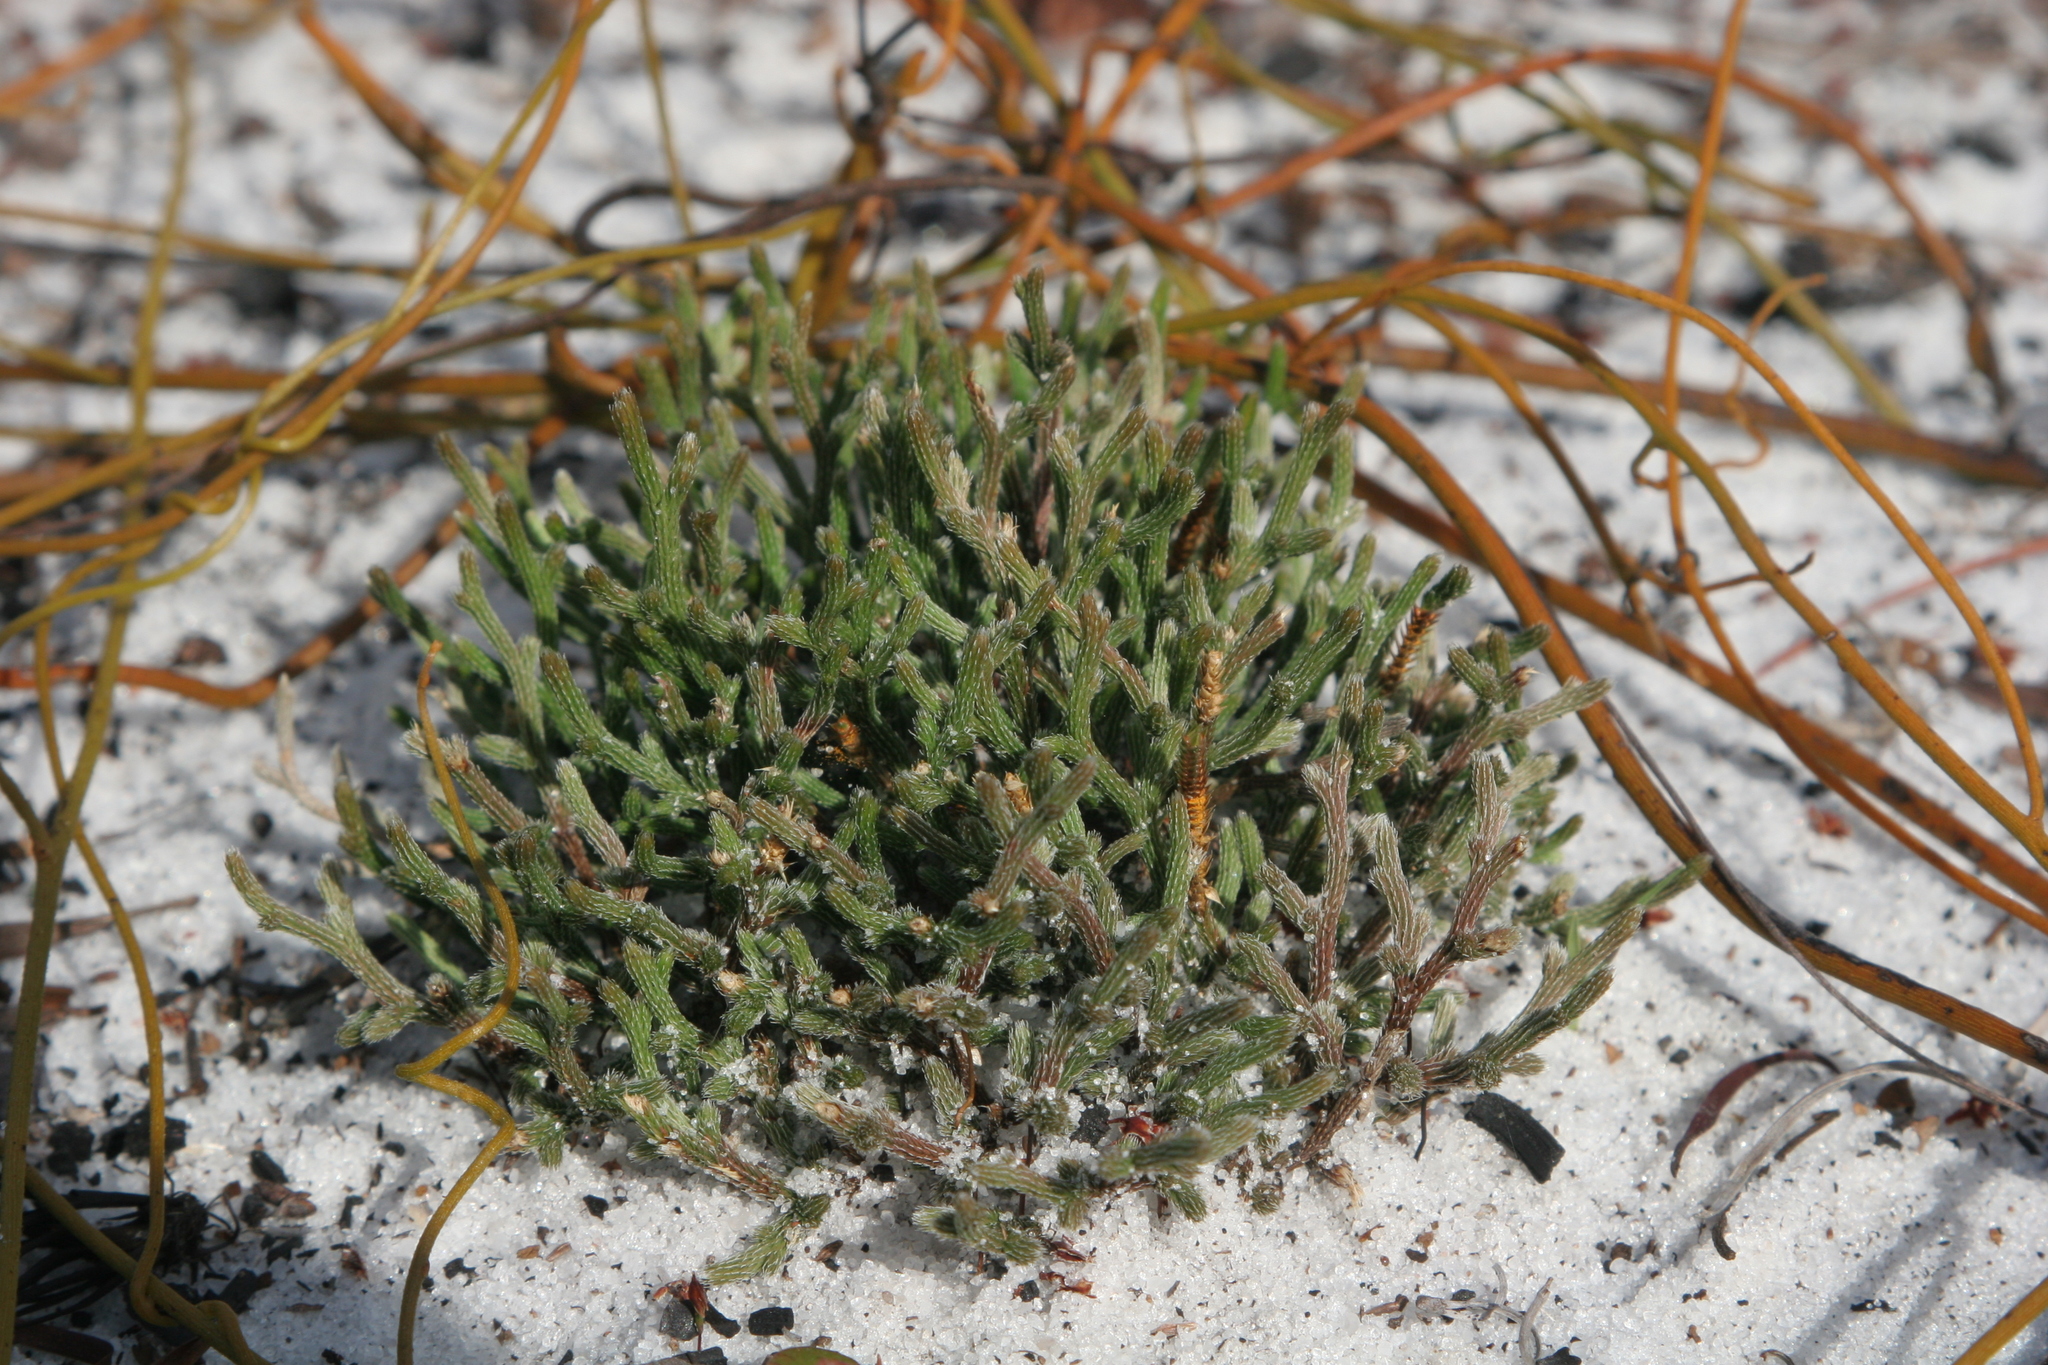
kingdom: Plantae
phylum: Tracheophyta
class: Lycopodiopsida
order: Selaginellales
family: Selaginellaceae
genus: Selaginella
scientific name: Selaginella arenicola
